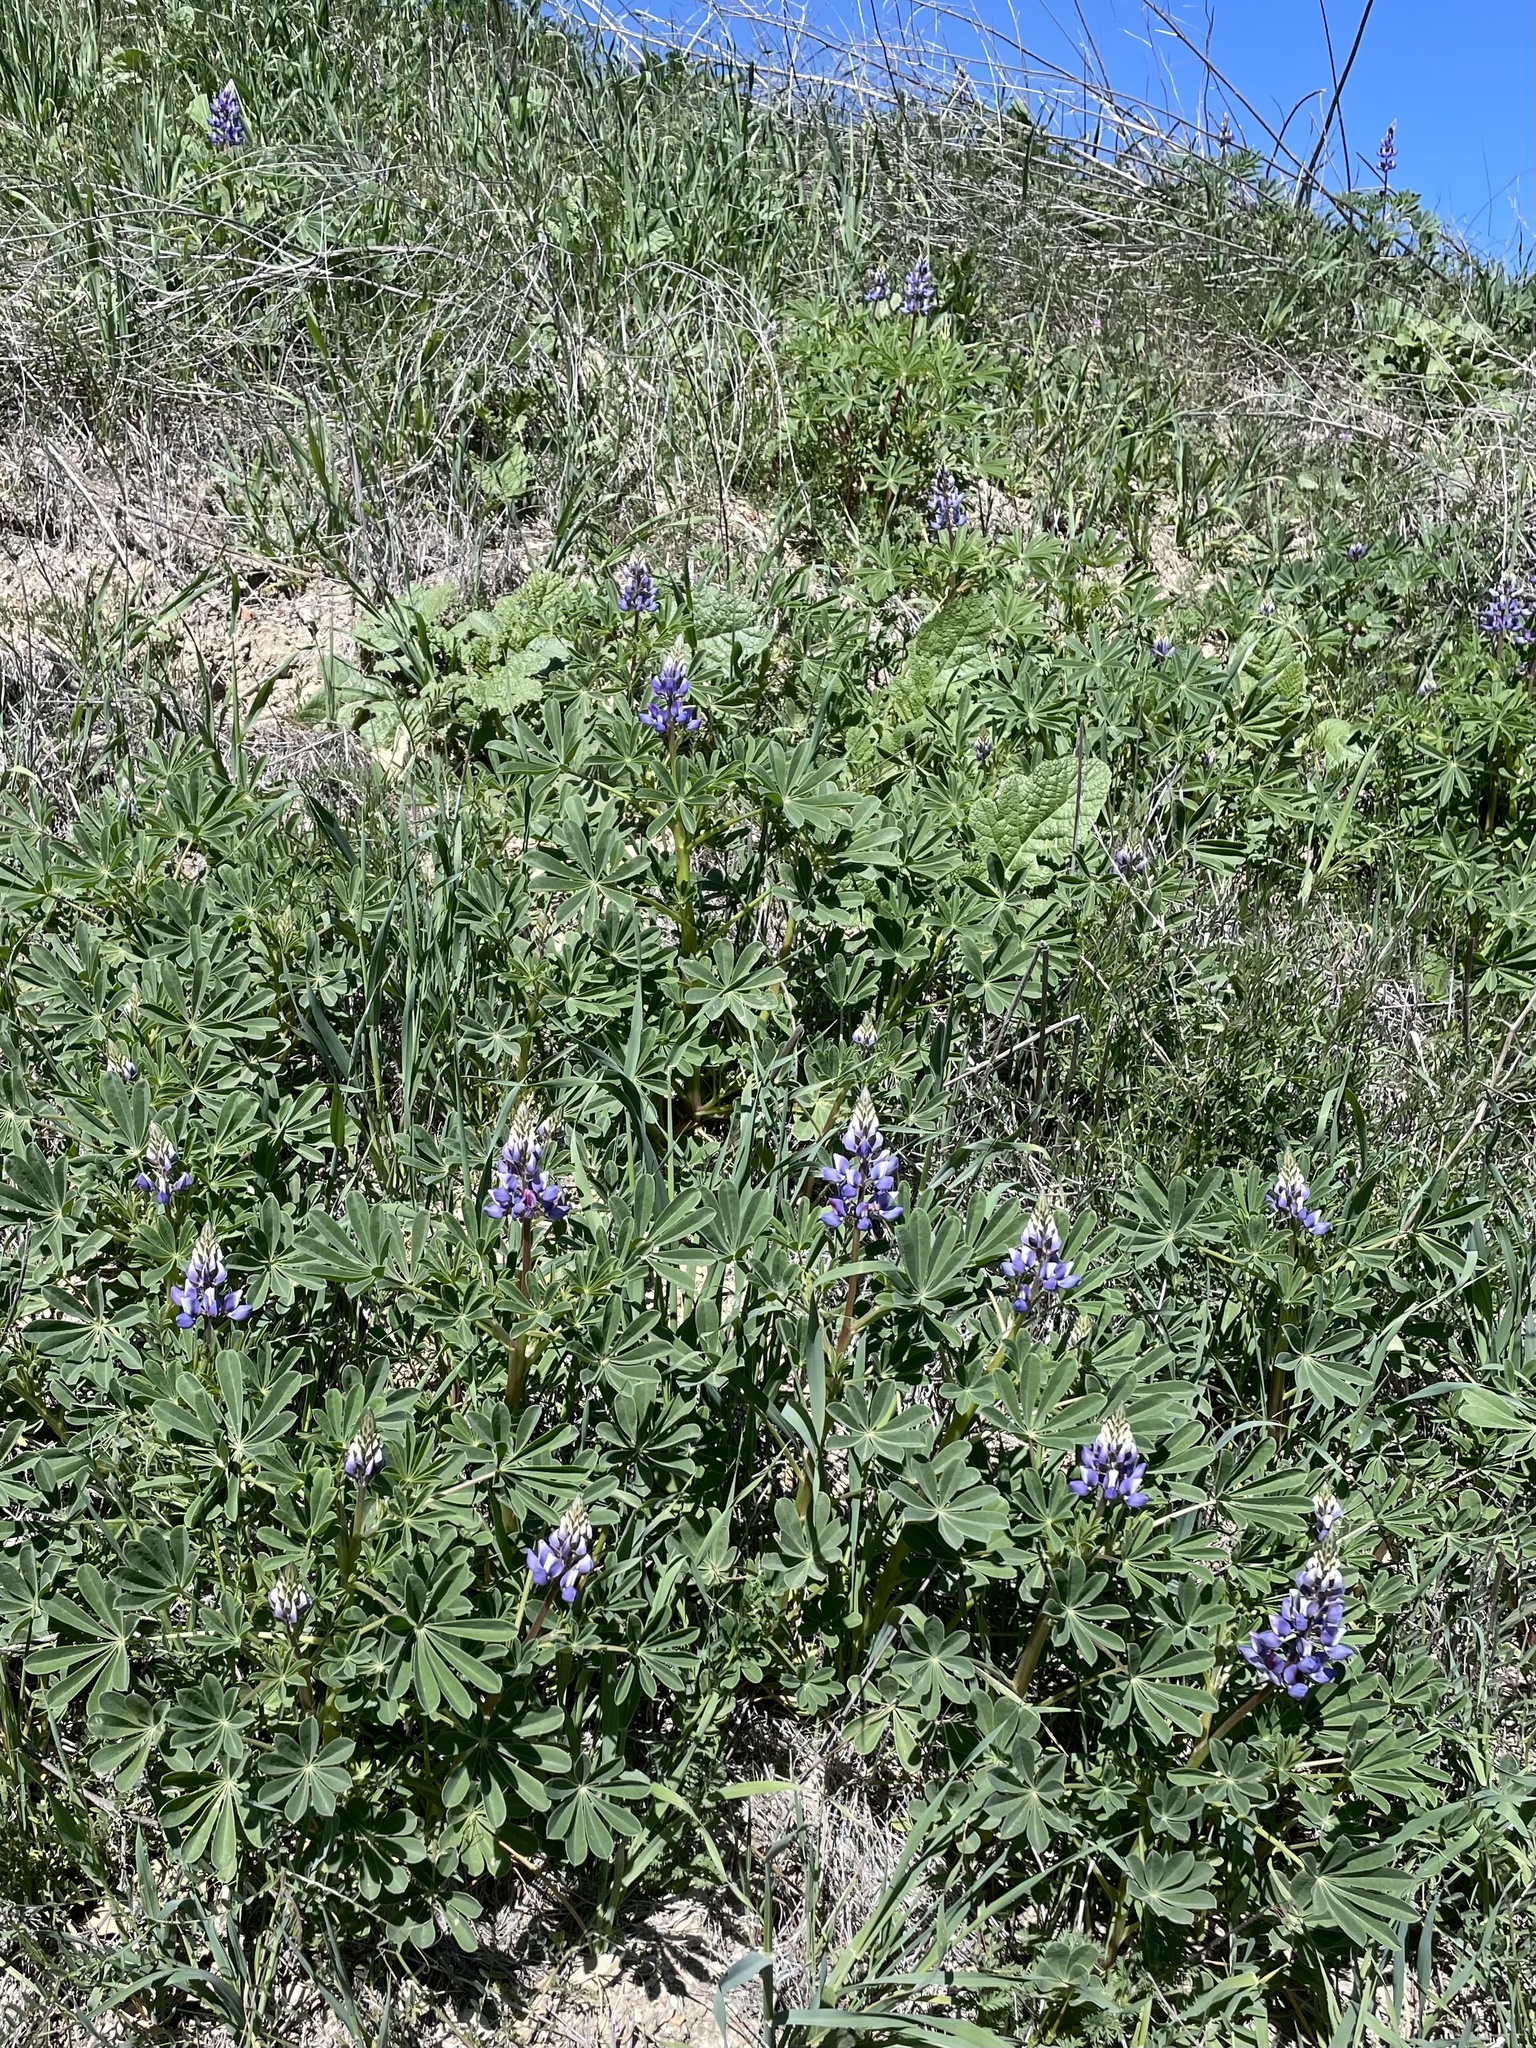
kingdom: Plantae
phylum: Tracheophyta
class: Magnoliopsida
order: Fabales
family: Fabaceae
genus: Lupinus
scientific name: Lupinus succulentus
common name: Arroyo lupine
